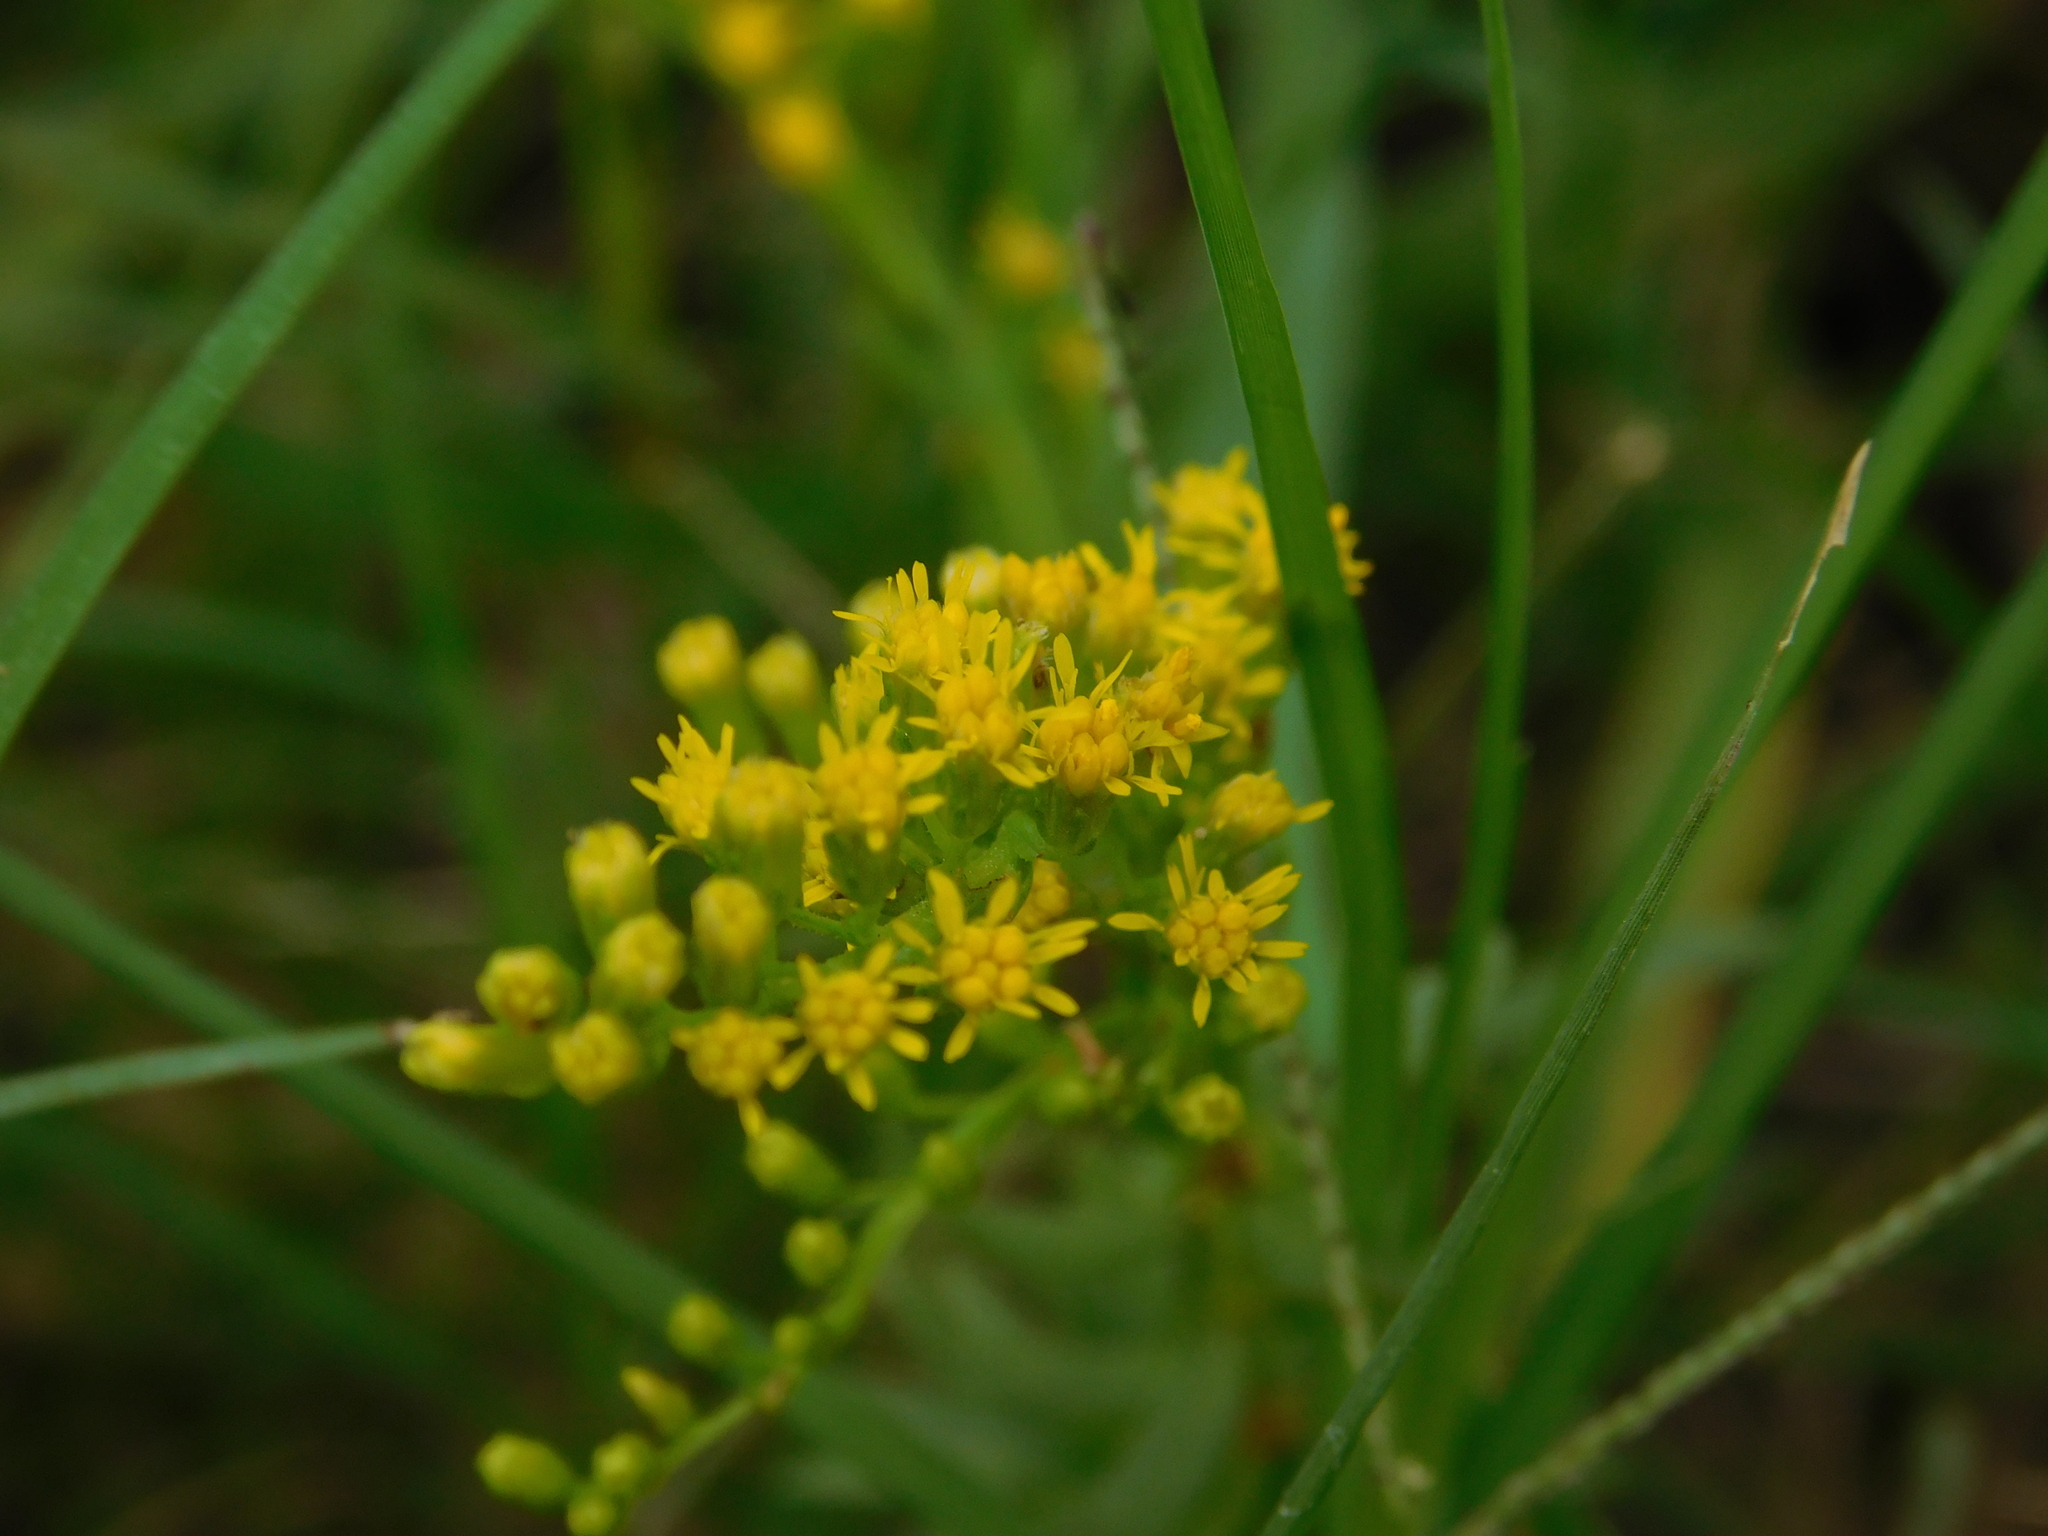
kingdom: Plantae
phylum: Tracheophyta
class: Magnoliopsida
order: Asterales
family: Asteraceae
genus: Solidago
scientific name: Solidago chilensis
